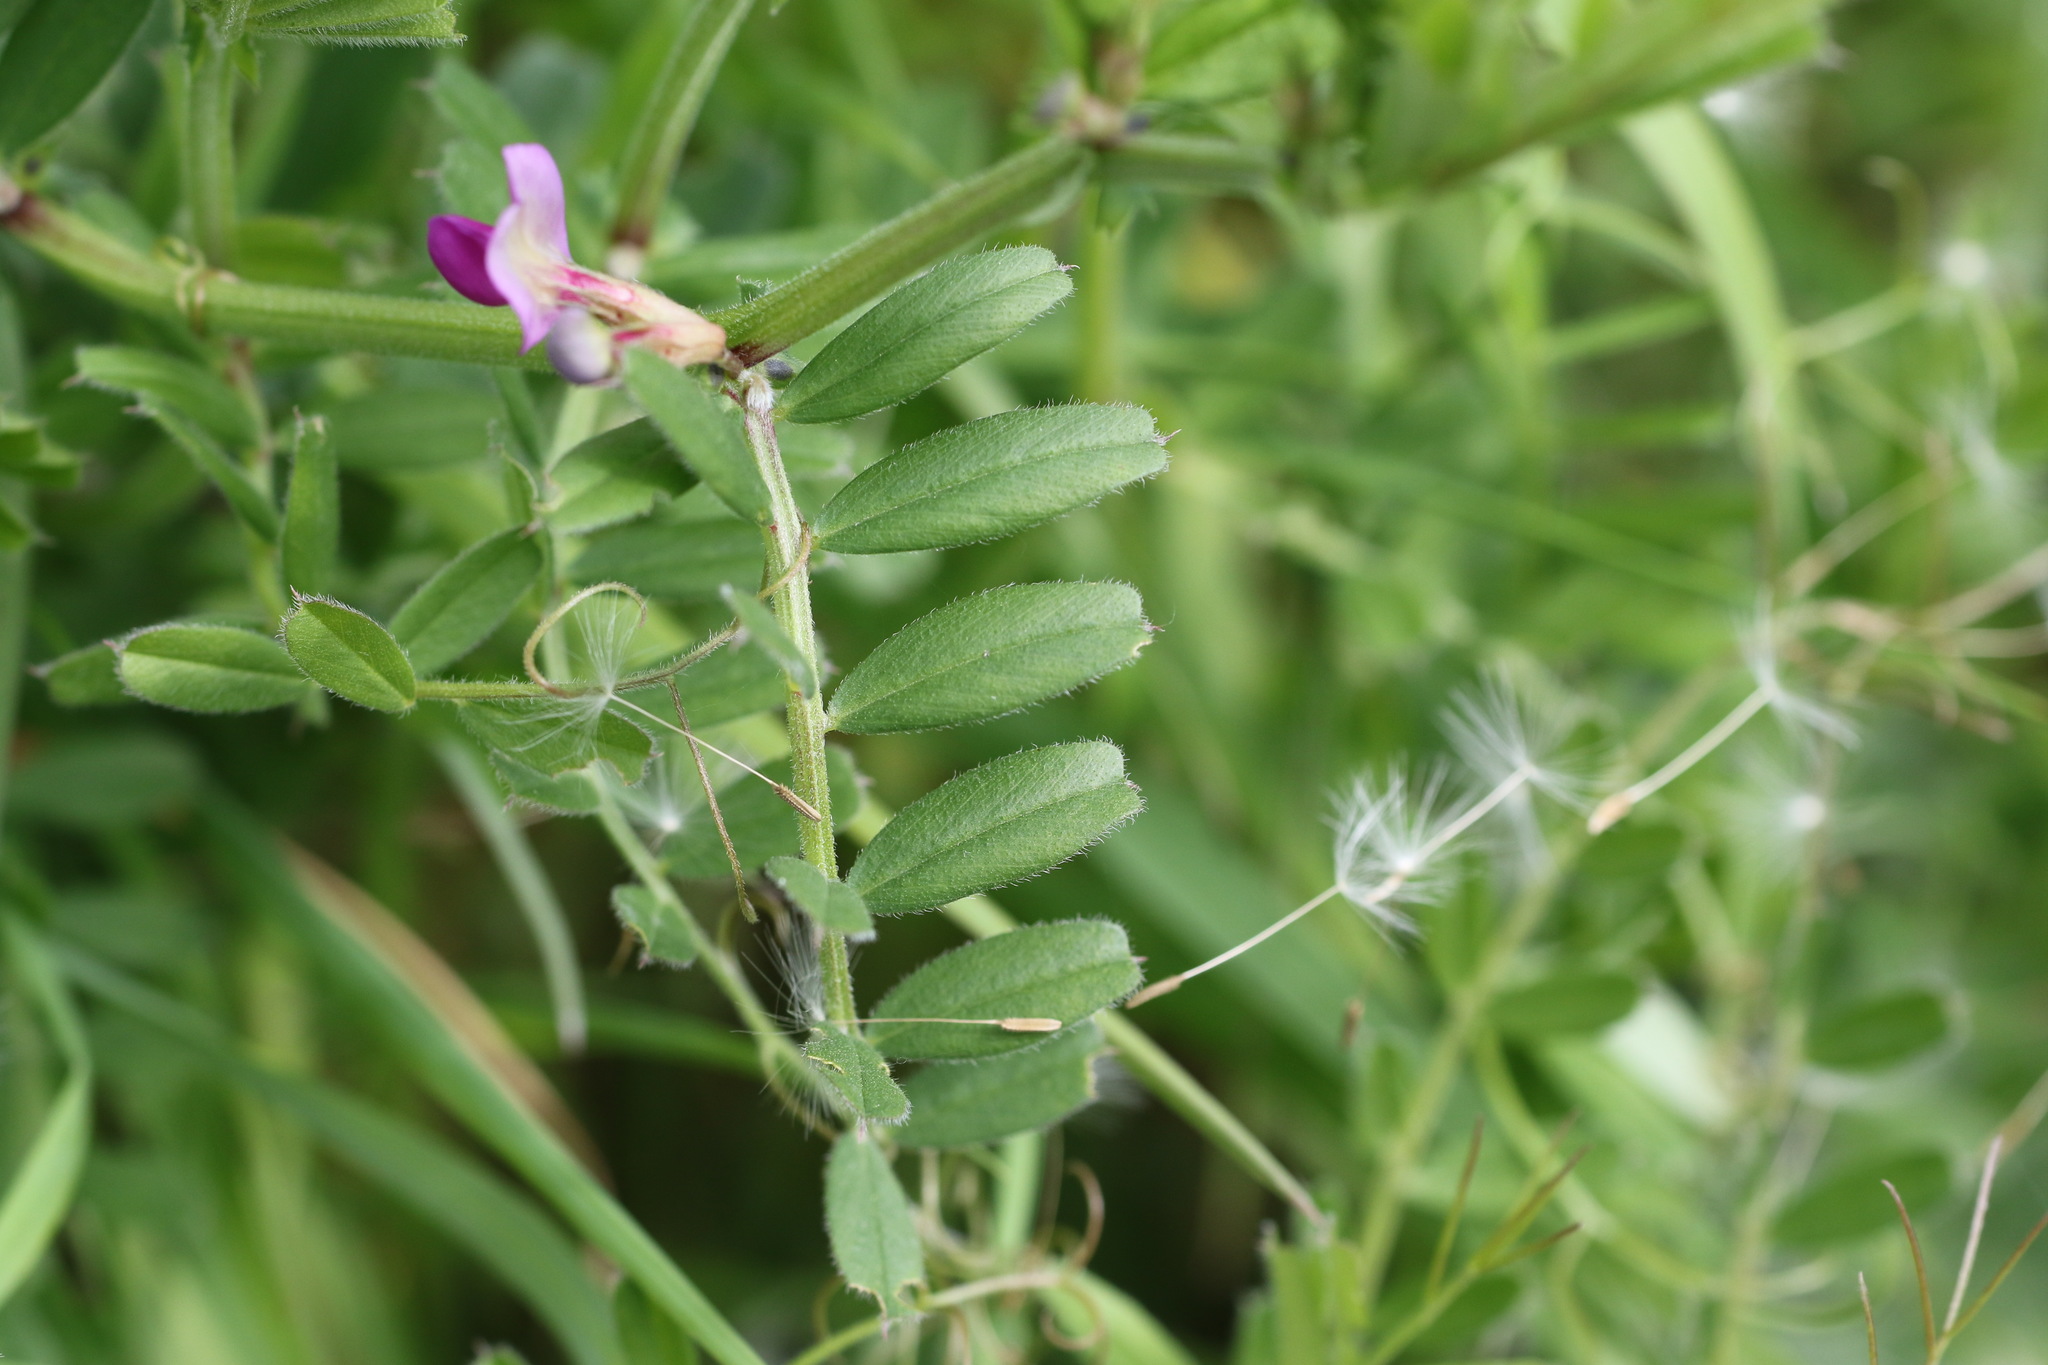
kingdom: Plantae
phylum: Tracheophyta
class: Magnoliopsida
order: Fabales
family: Fabaceae
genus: Vicia
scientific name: Vicia sativa
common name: Garden vetch
